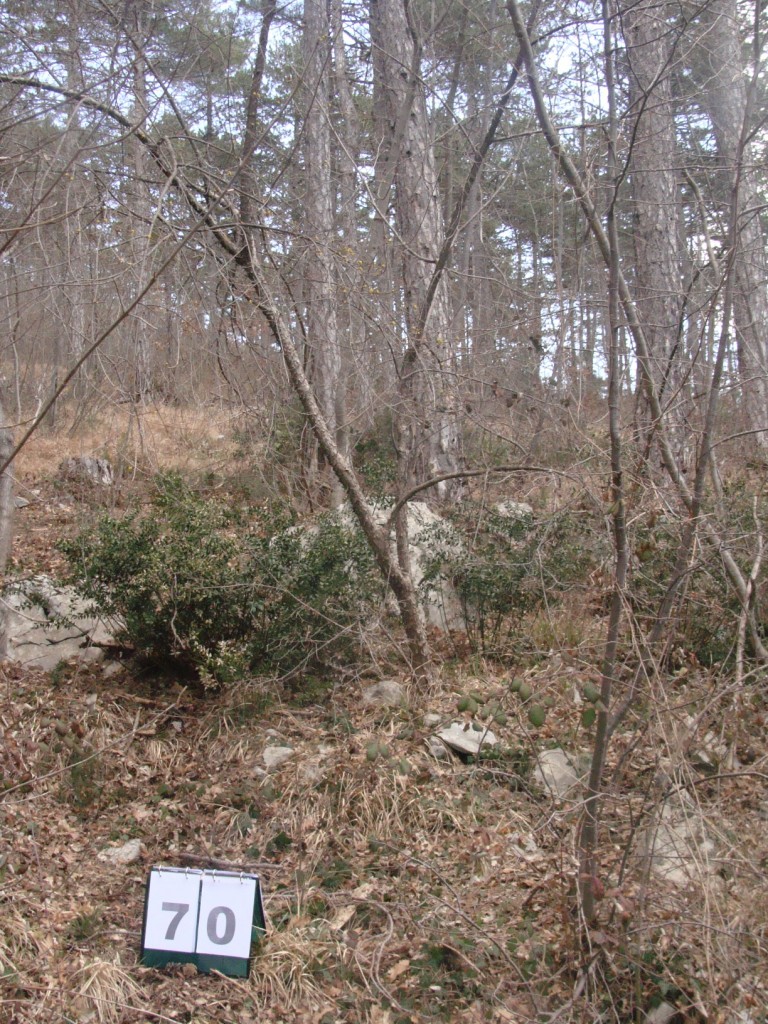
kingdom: Plantae
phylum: Tracheophyta
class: Magnoliopsida
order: Cornales
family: Cornaceae
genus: Cornus
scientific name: Cornus mas
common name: Cornelian-cherry
